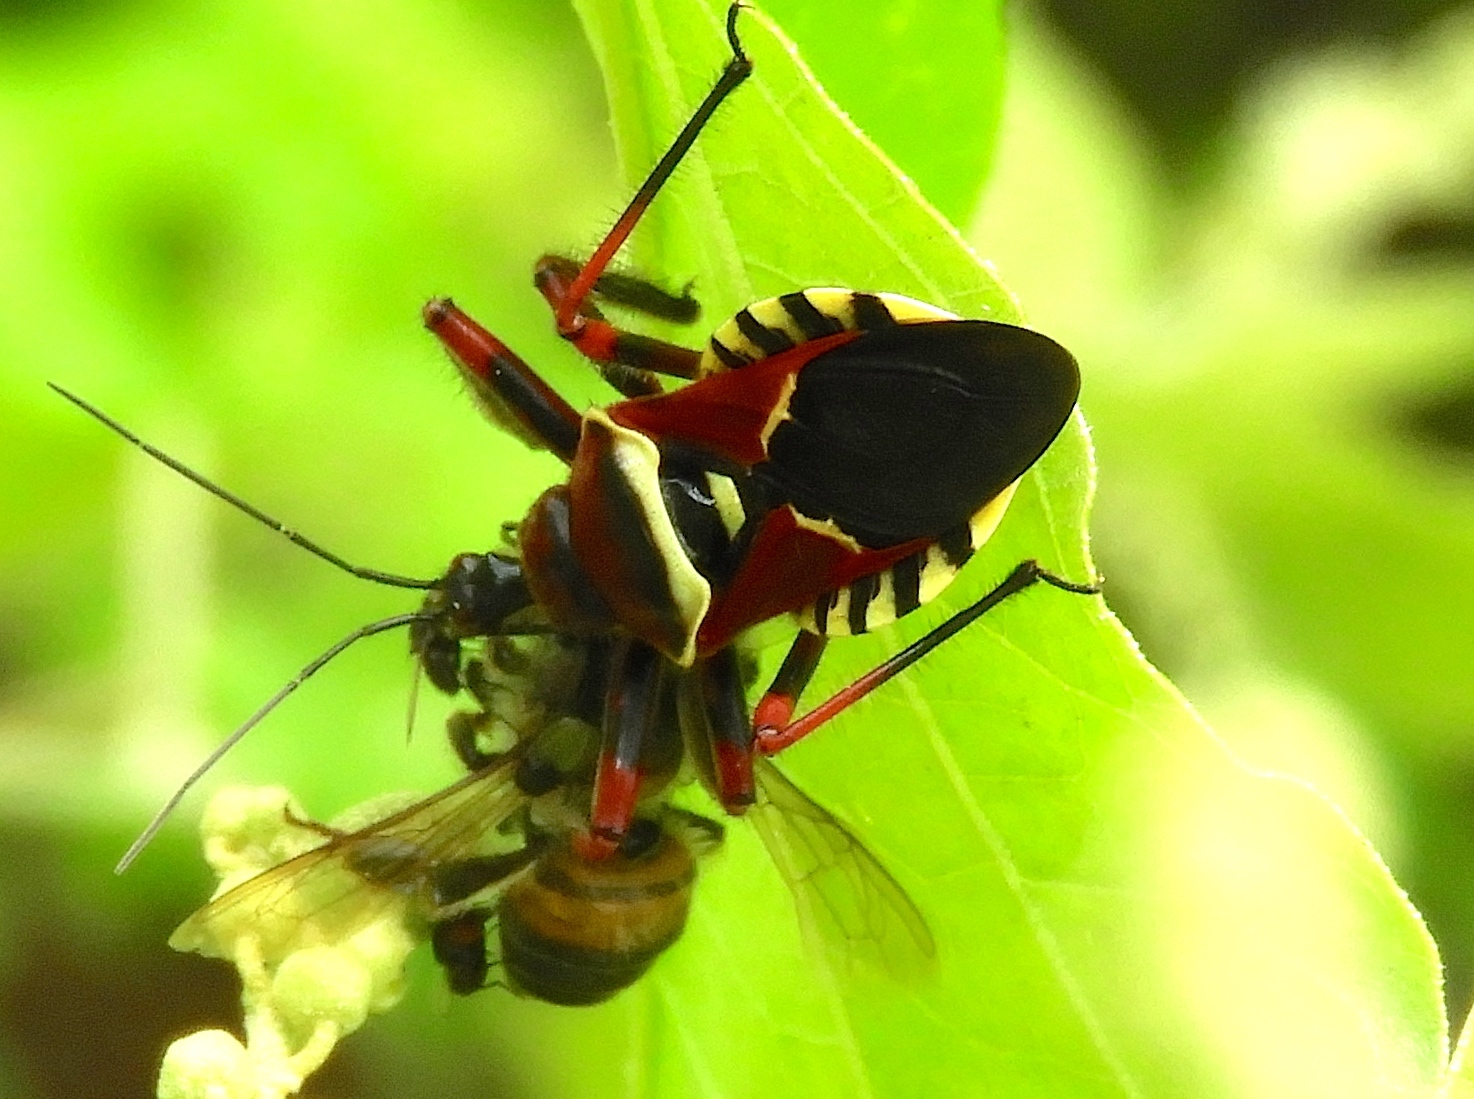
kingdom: Animalia
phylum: Arthropoda
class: Insecta
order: Hemiptera
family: Reduviidae
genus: Apiomerus
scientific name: Apiomerus flaviventris
